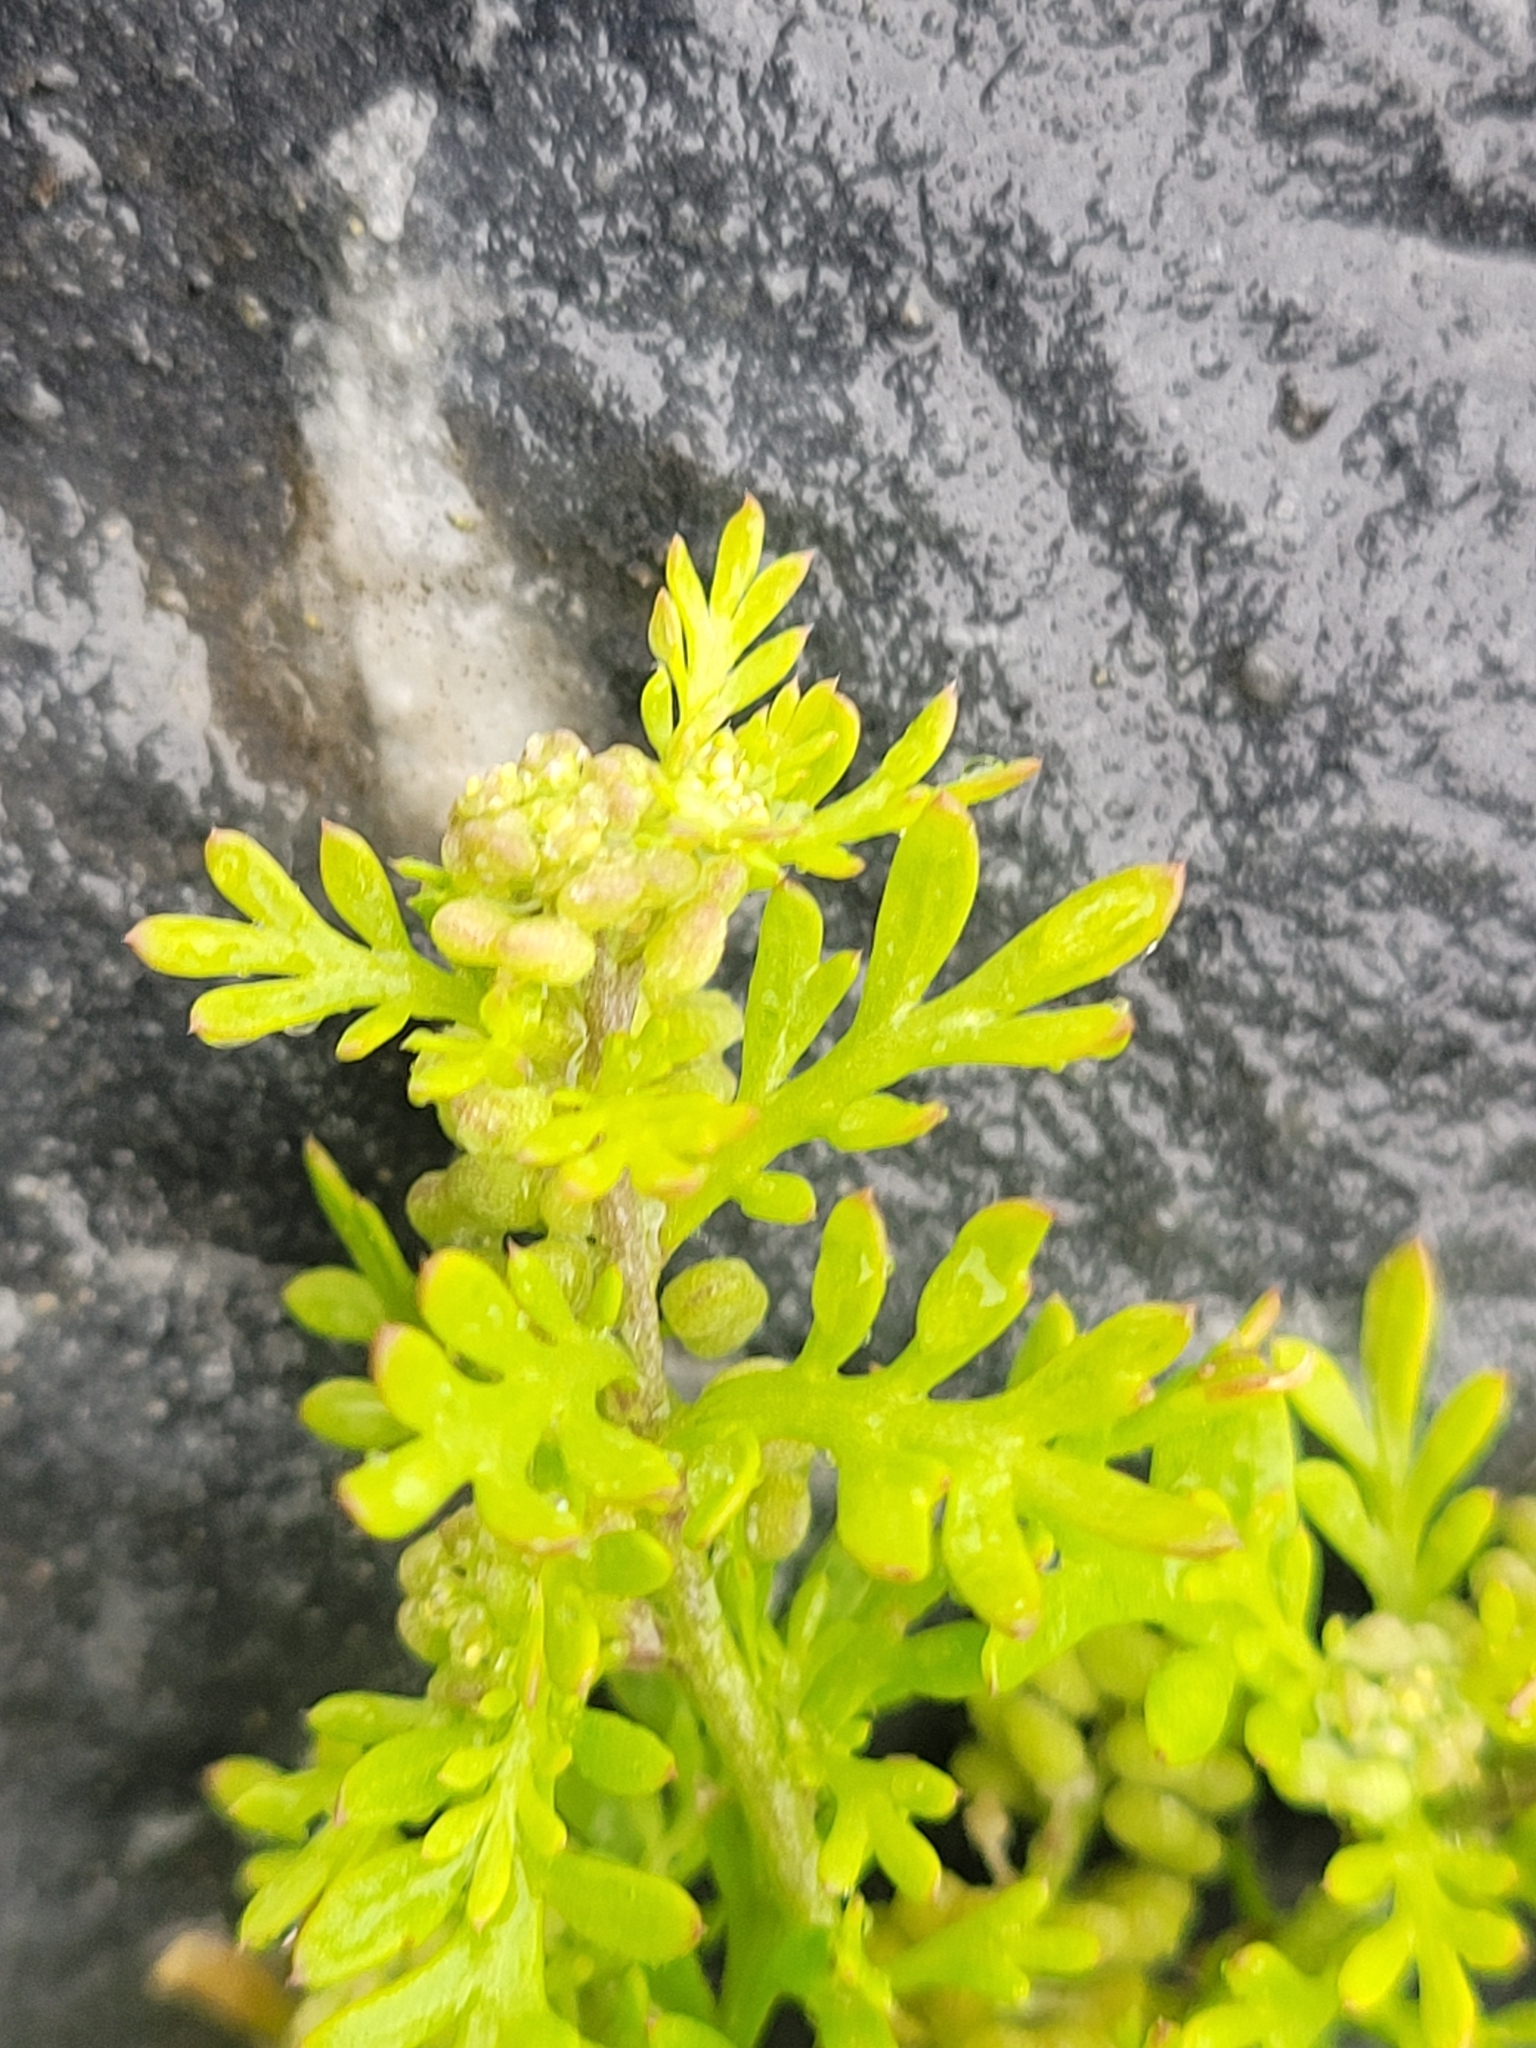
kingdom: Plantae
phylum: Tracheophyta
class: Magnoliopsida
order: Brassicales
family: Brassicaceae
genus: Lepidium
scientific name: Lepidium didymum
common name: Lesser swinecress
